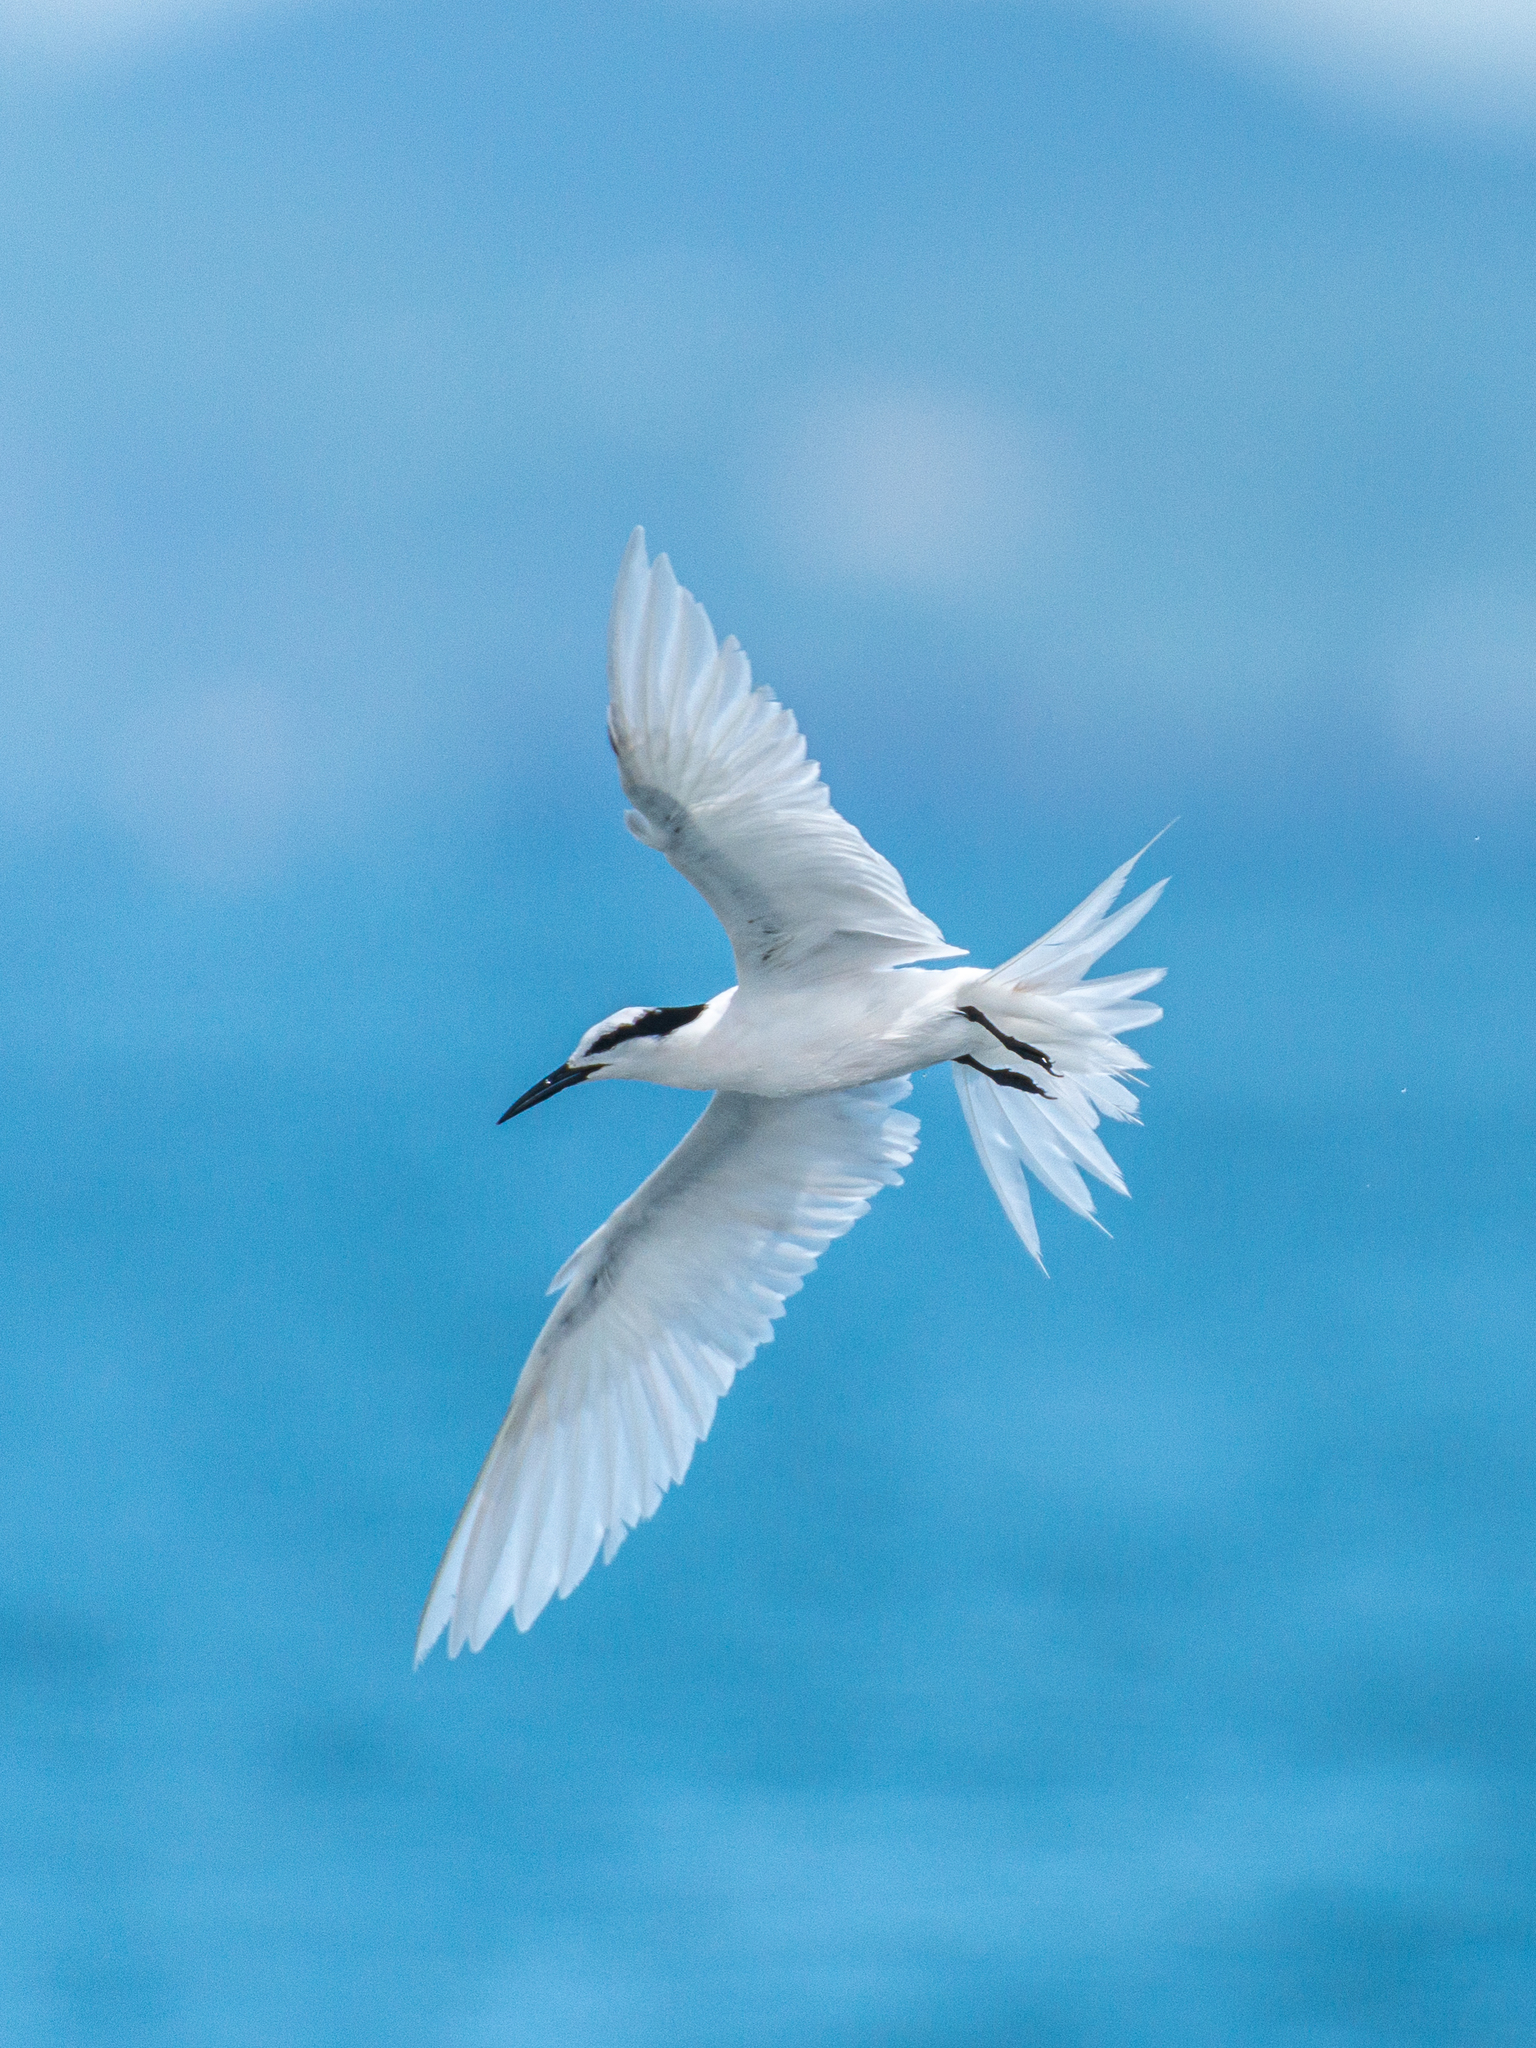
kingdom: Animalia
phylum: Chordata
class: Aves
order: Charadriiformes
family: Laridae
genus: Sterna
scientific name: Sterna sumatrana
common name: Black-naped tern
